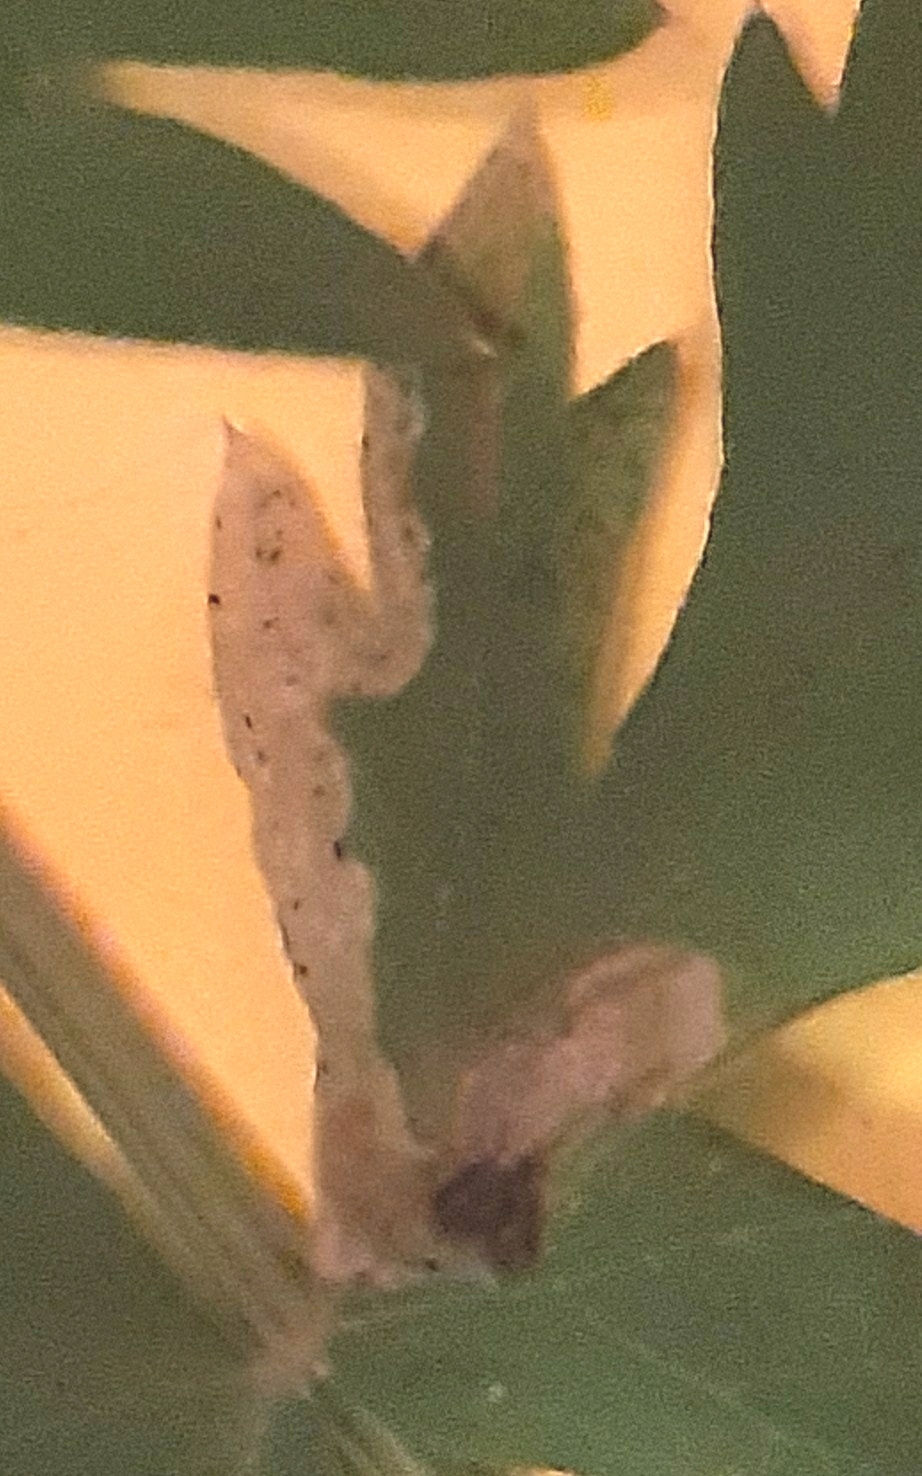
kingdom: Animalia
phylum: Arthropoda
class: Insecta
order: Diptera
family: Agromyzidae
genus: Phytomyza
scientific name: Phytomyza libanotidis
